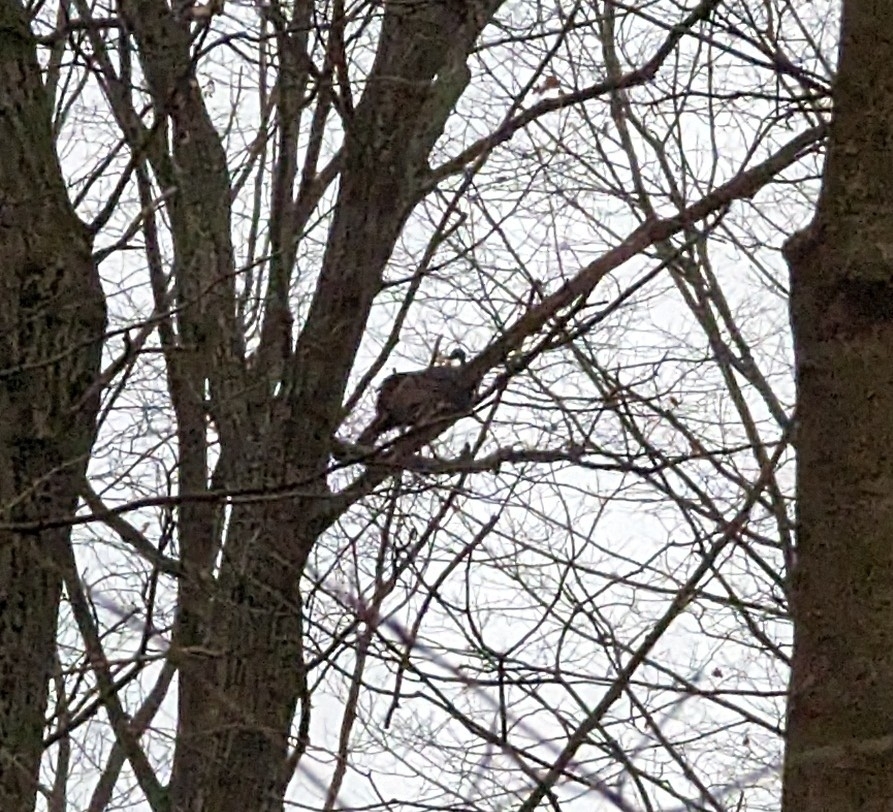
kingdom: Animalia
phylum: Chordata
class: Aves
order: Galliformes
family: Phasianidae
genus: Meleagris
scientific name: Meleagris gallopavo
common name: Wild turkey
